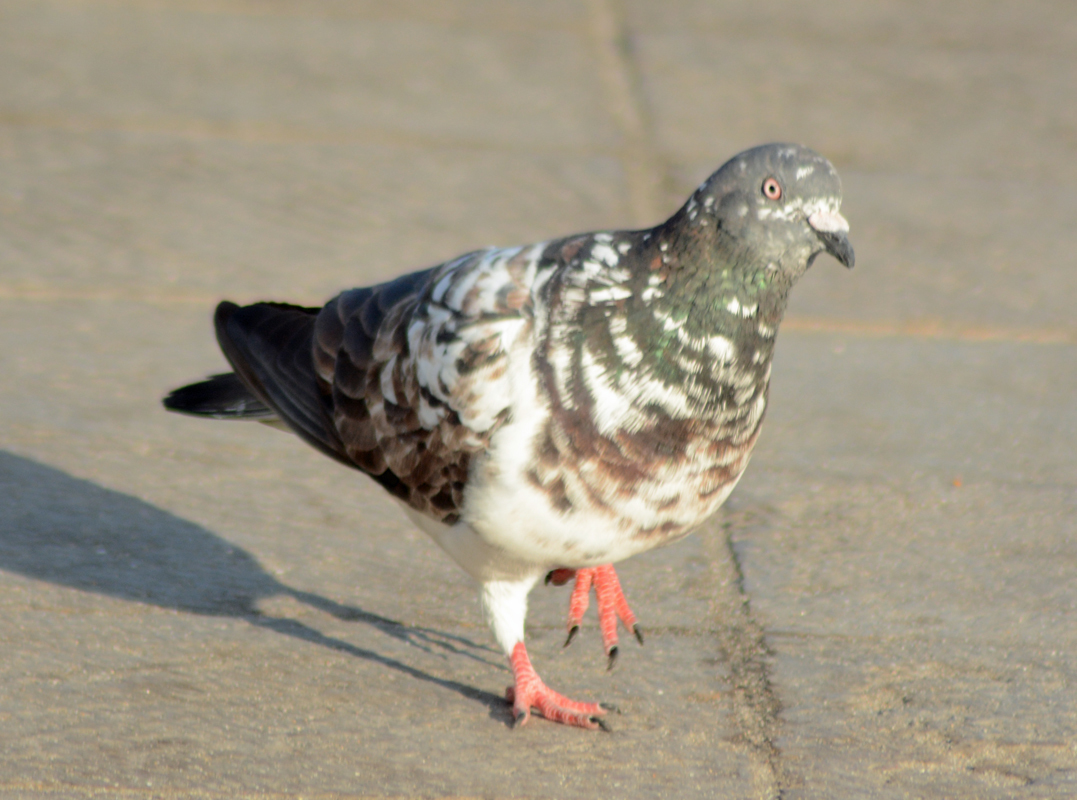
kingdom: Animalia
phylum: Chordata
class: Aves
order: Columbiformes
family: Columbidae
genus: Columba
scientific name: Columba livia
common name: Rock pigeon
